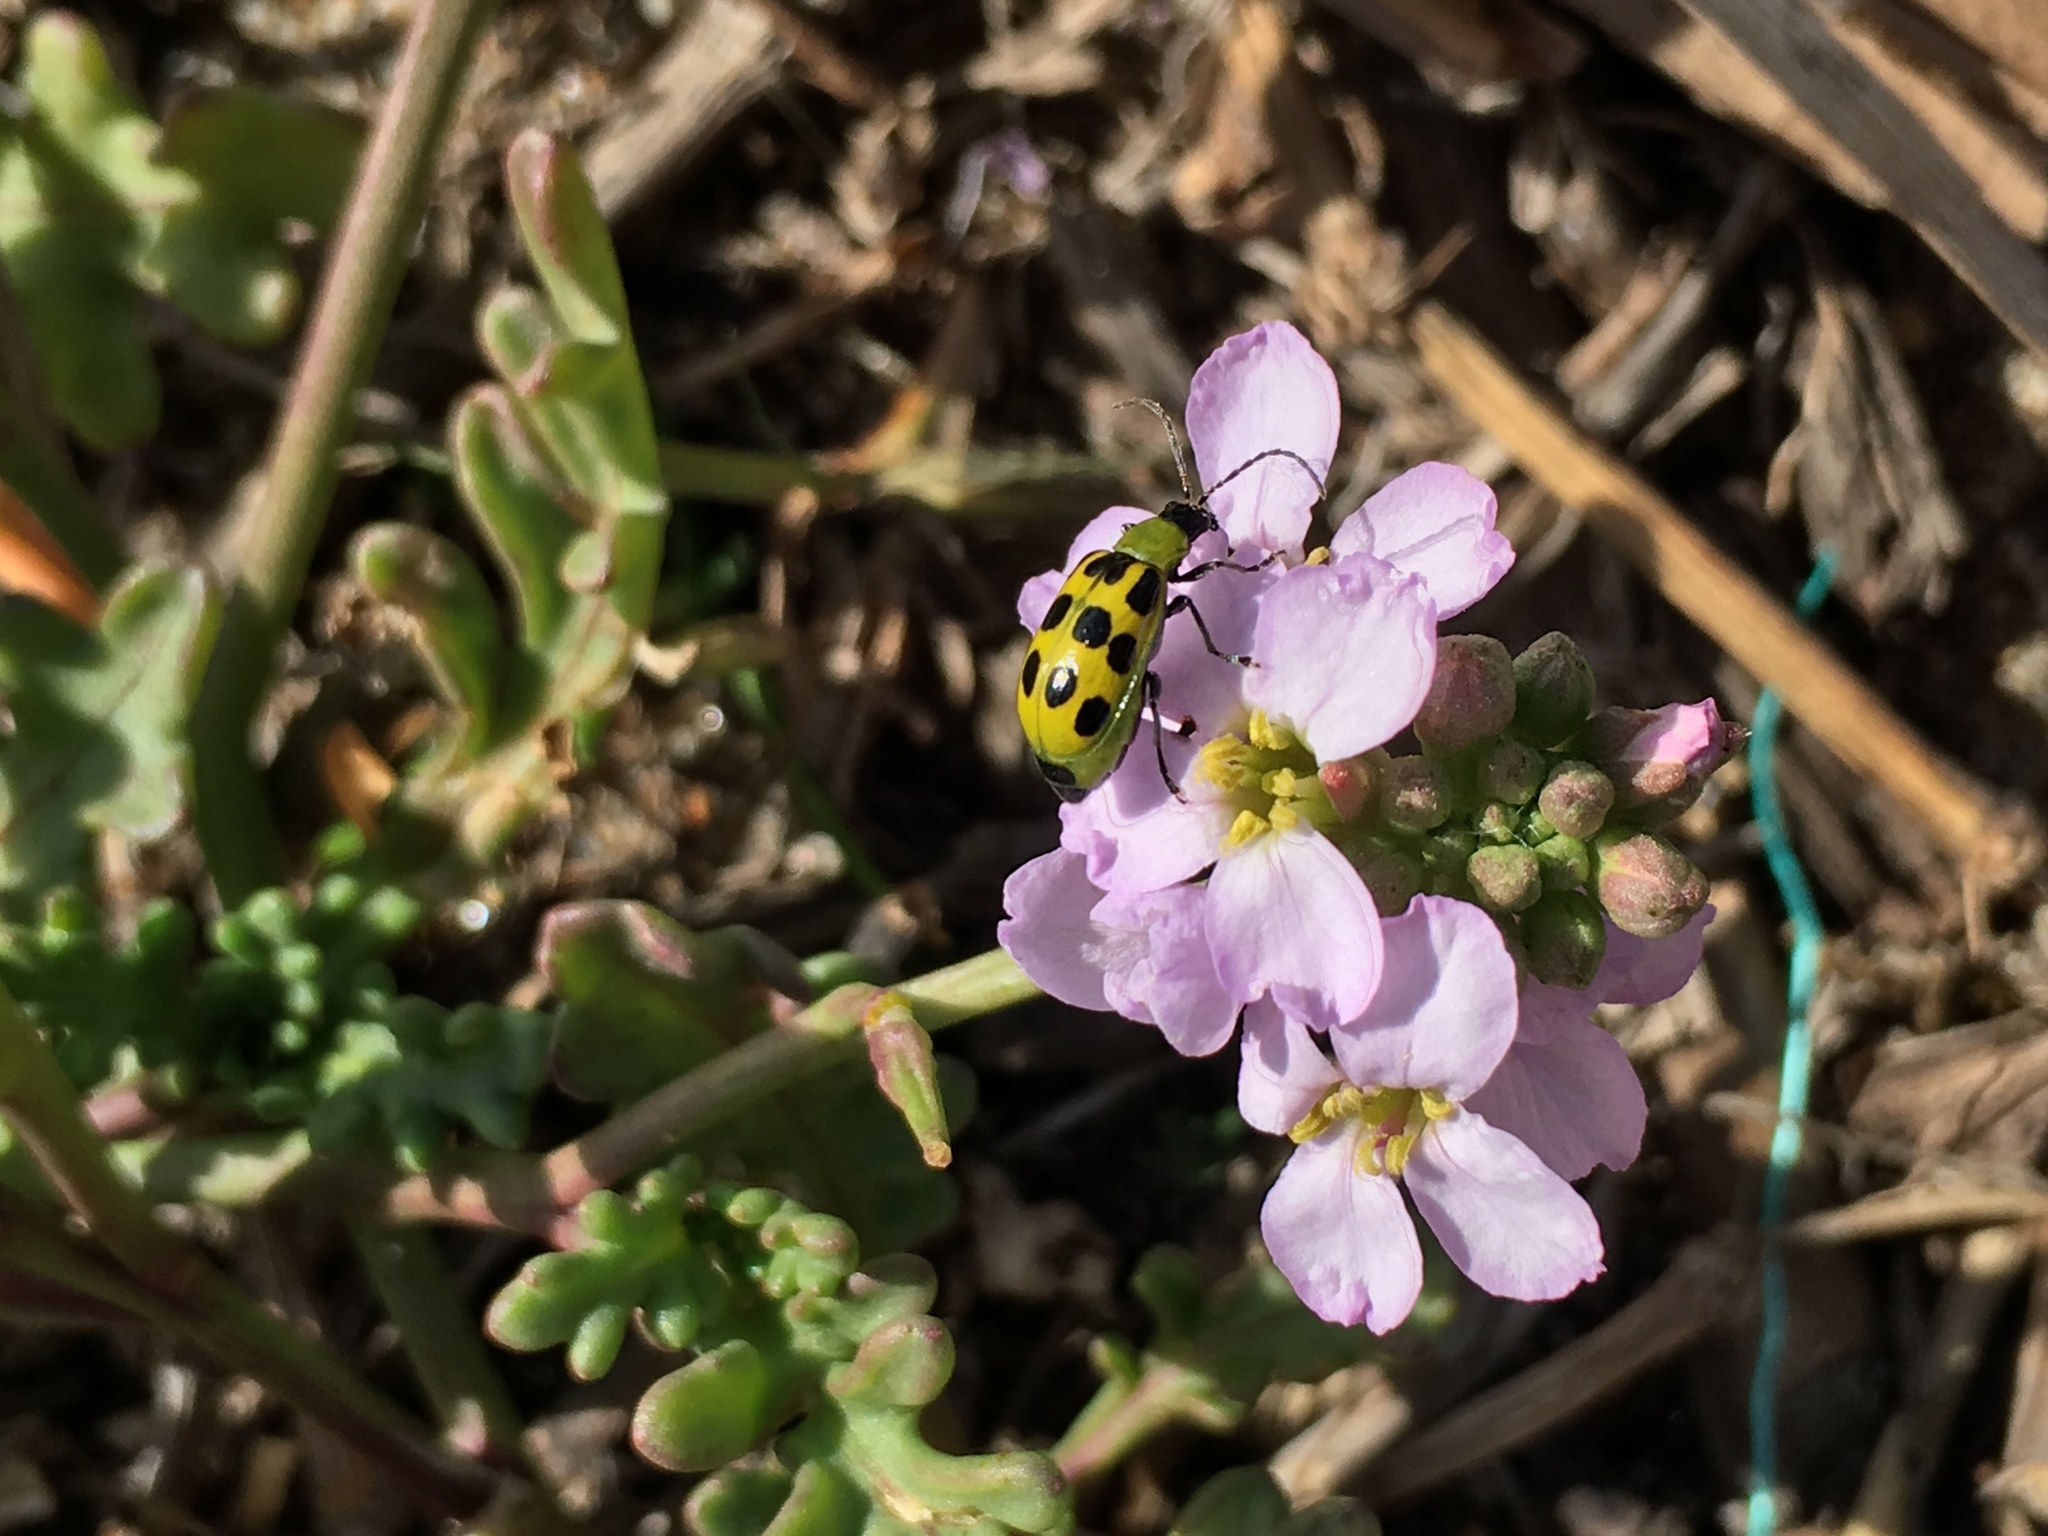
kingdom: Animalia
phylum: Arthropoda
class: Insecta
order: Coleoptera
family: Chrysomelidae
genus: Diabrotica
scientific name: Diabrotica undecimpunctata
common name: Spotted cucumber beetle
